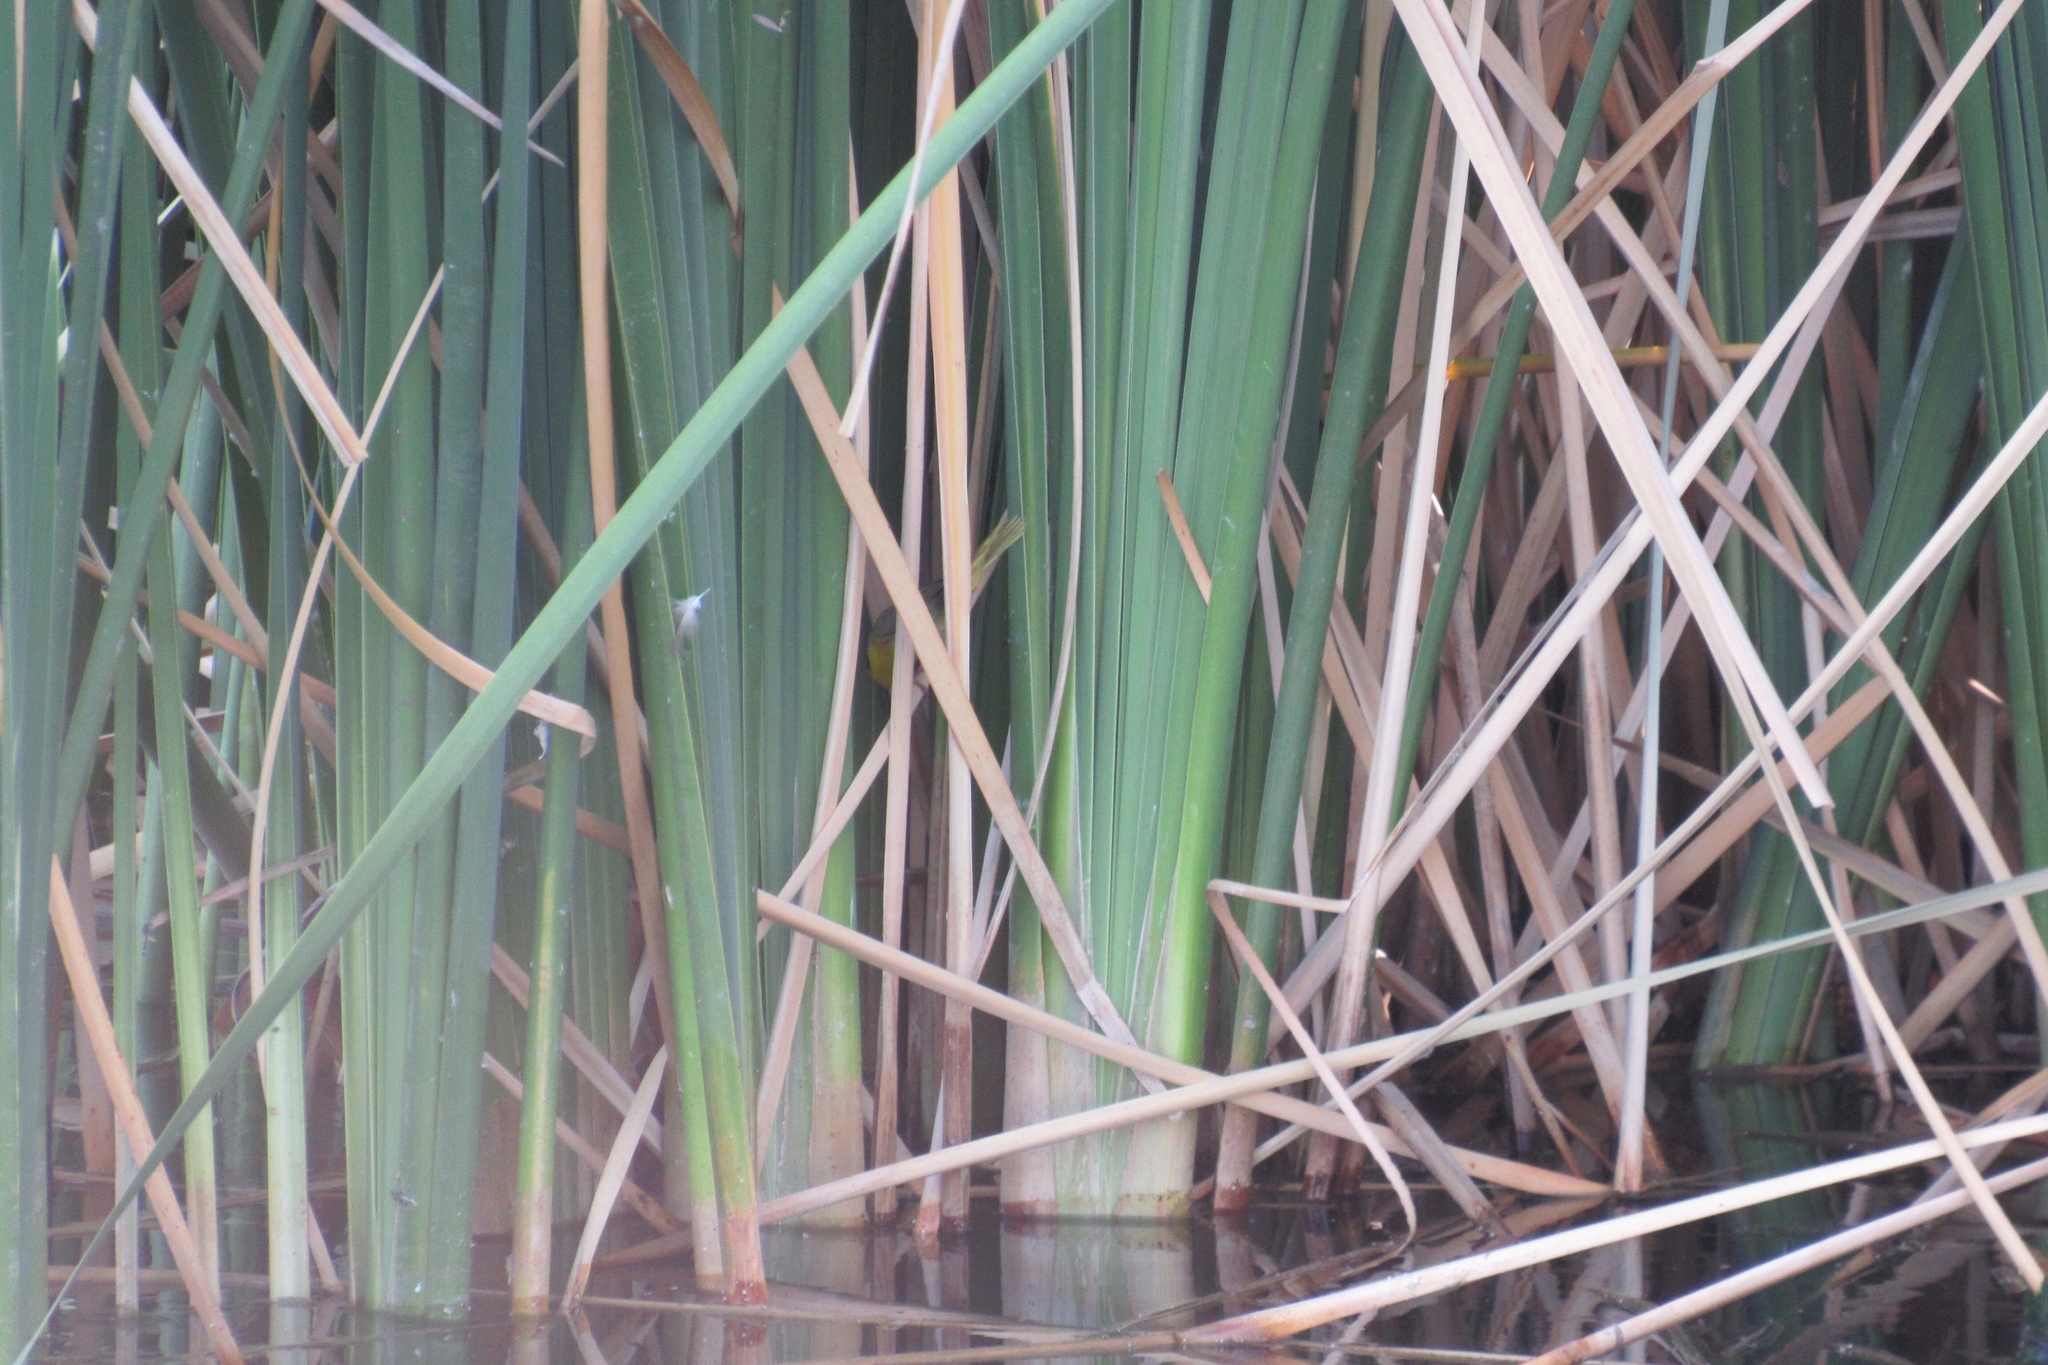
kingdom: Animalia
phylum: Chordata
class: Aves
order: Passeriformes
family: Parulidae
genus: Geothlypis
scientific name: Geothlypis trichas
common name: Common yellowthroat
